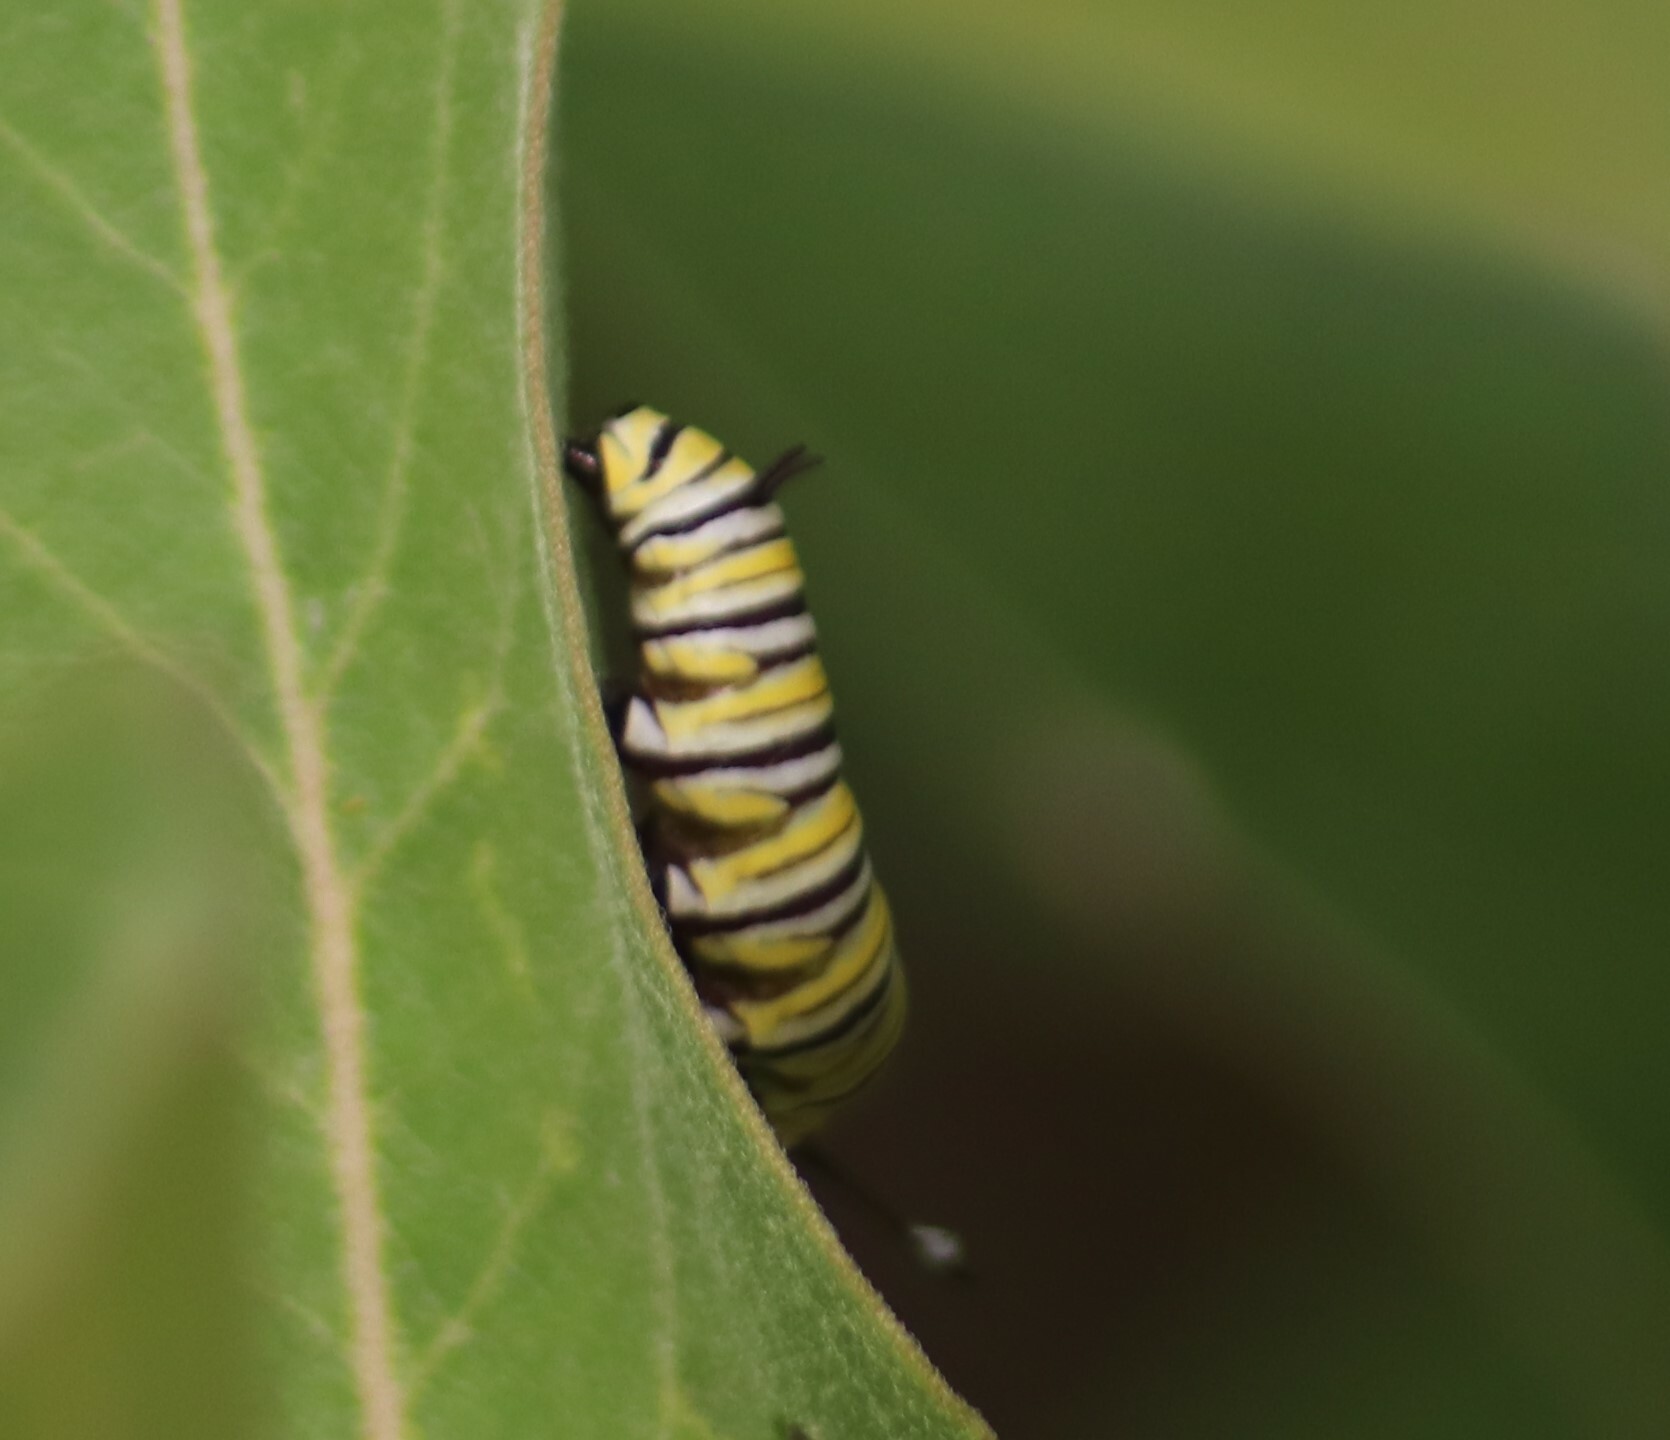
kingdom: Animalia
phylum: Arthropoda
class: Insecta
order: Lepidoptera
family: Nymphalidae
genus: Danaus
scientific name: Danaus plexippus
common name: Monarch
